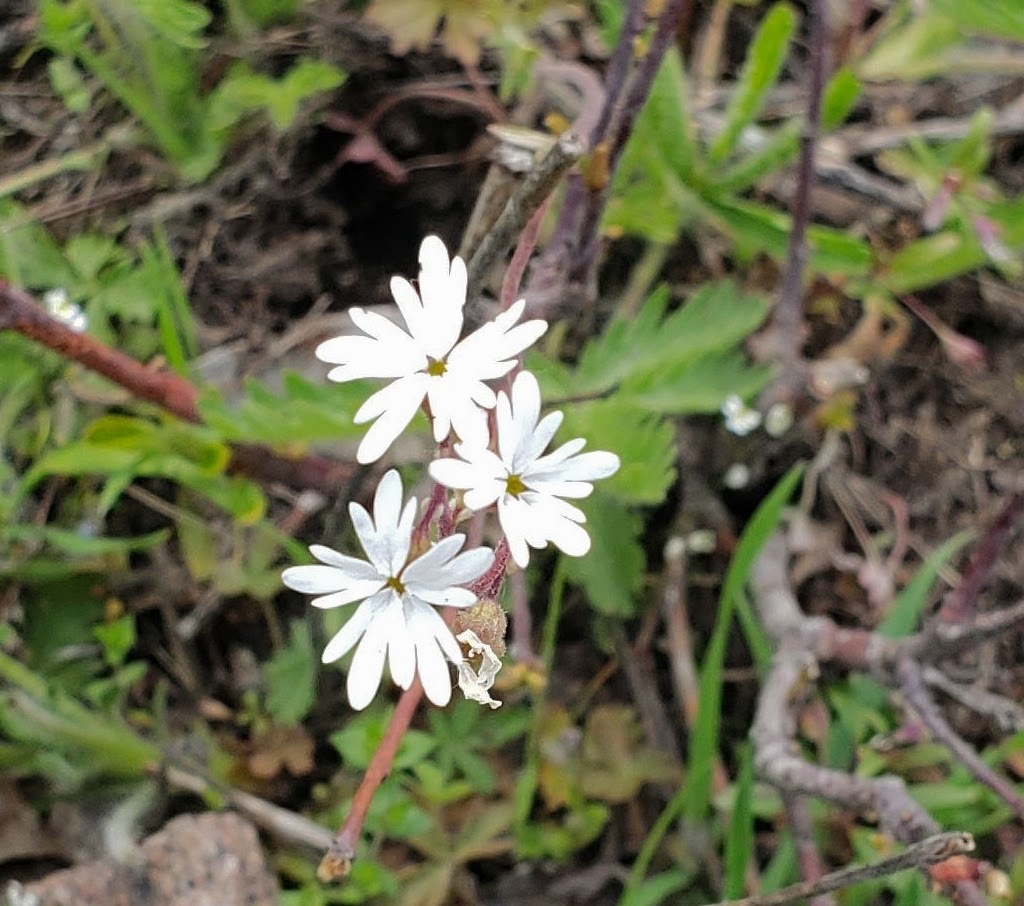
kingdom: Plantae
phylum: Tracheophyta
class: Magnoliopsida
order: Saxifragales
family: Saxifragaceae
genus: Lithophragma
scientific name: Lithophragma parviflorum
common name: Small-flowered fringe-cup
